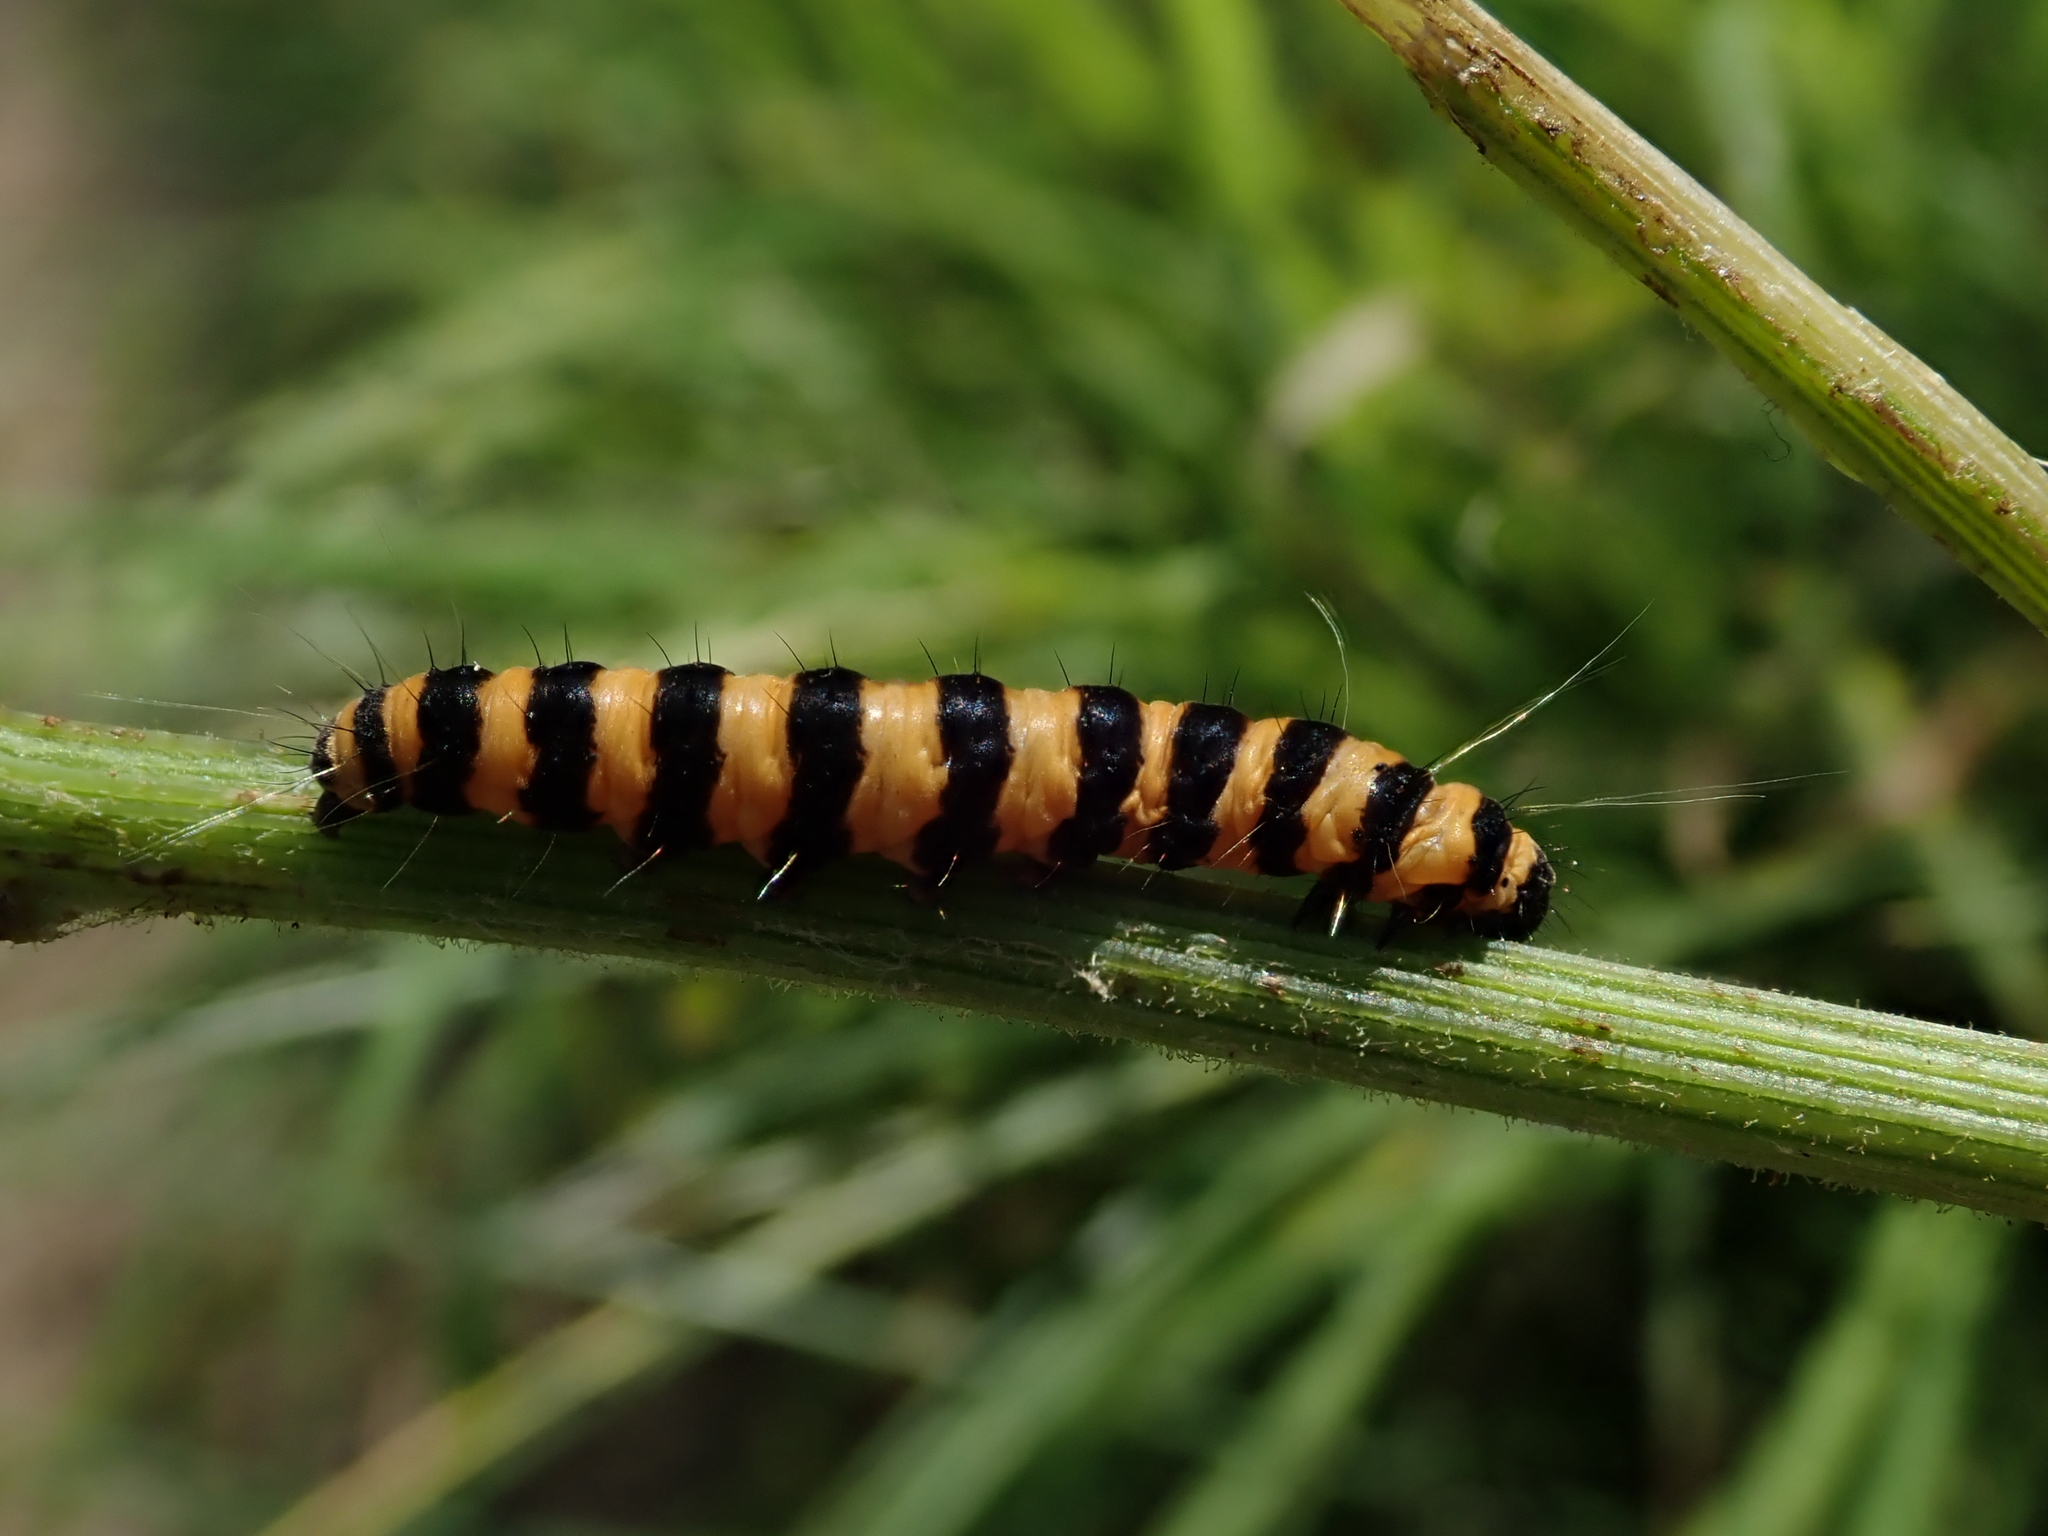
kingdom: Animalia
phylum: Arthropoda
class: Insecta
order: Lepidoptera
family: Erebidae
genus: Tyria
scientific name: Tyria jacobaeae
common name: Cinnabar
